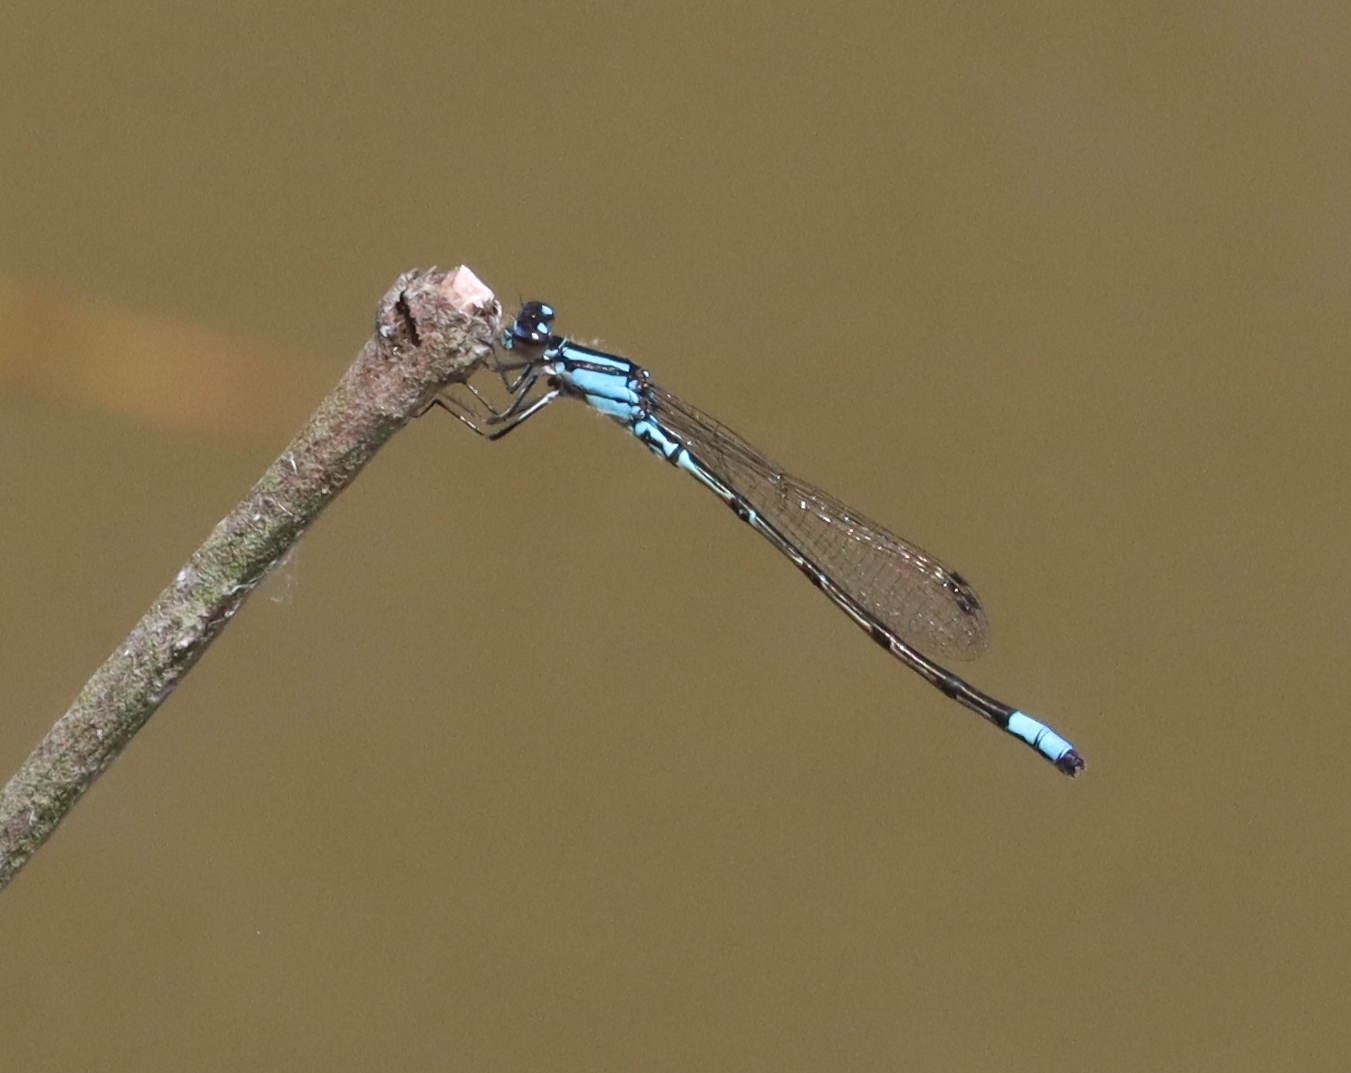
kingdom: Animalia
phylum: Arthropoda
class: Insecta
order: Odonata
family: Coenagrionidae
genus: Enallagma
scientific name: Enallagma geminatum
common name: Skimming bluet
